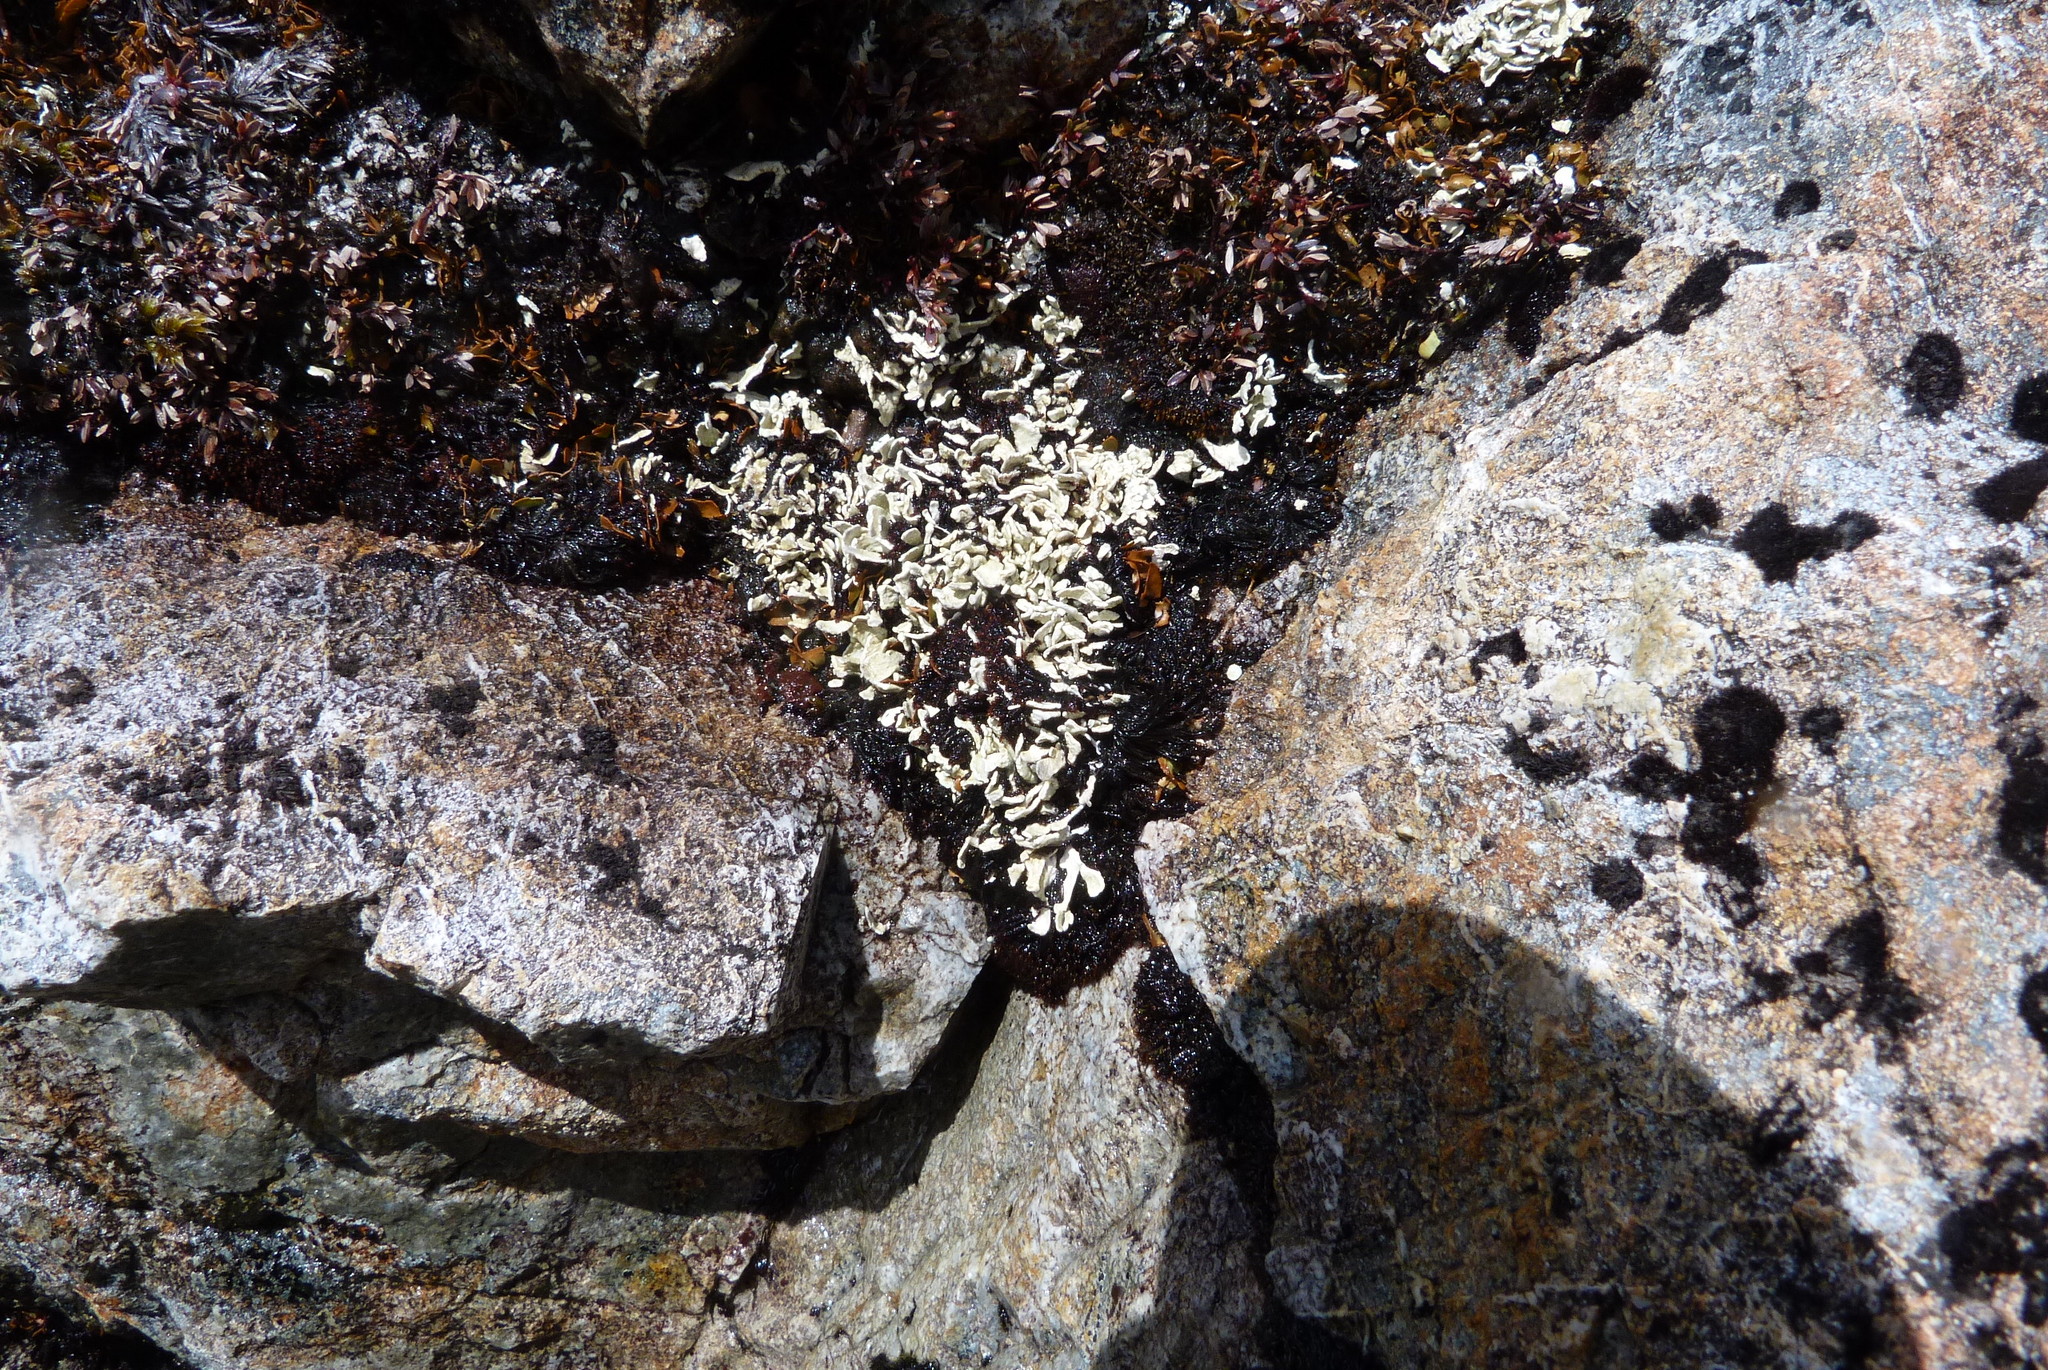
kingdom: Fungi
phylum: Ascomycota
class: Lecanoromycetes
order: Pertusariales
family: Icmadophilaceae
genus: Siphula
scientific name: Siphula dissoluta
